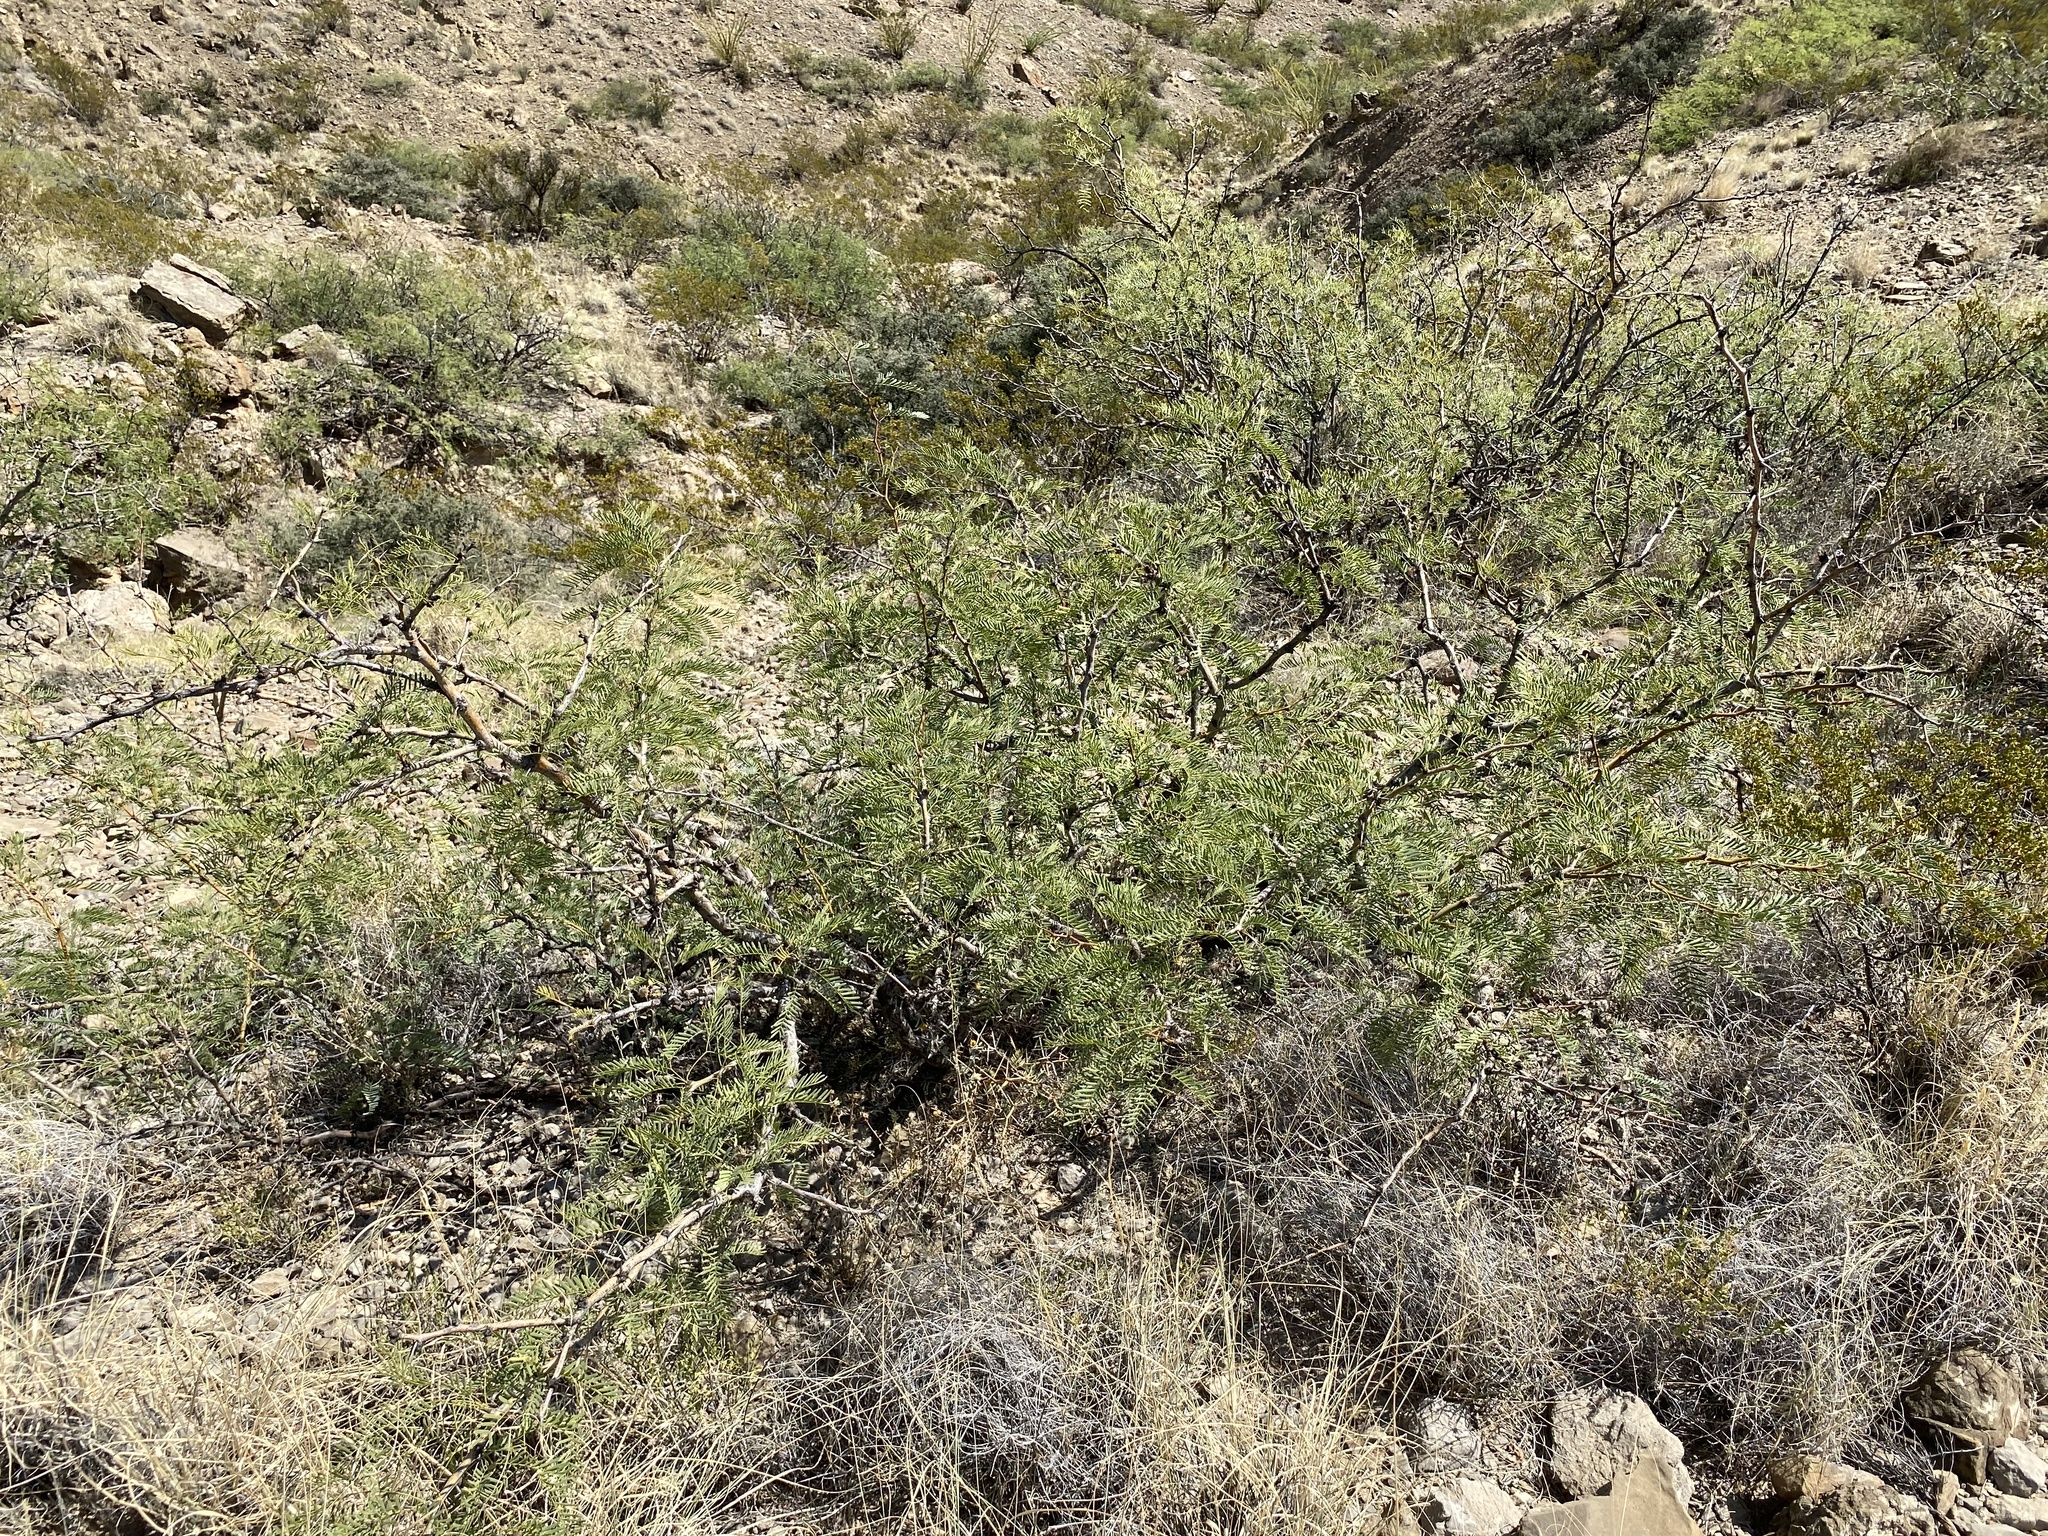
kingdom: Plantae
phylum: Tracheophyta
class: Magnoliopsida
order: Fabales
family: Fabaceae
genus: Prosopis
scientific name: Prosopis glandulosa
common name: Honey mesquite
